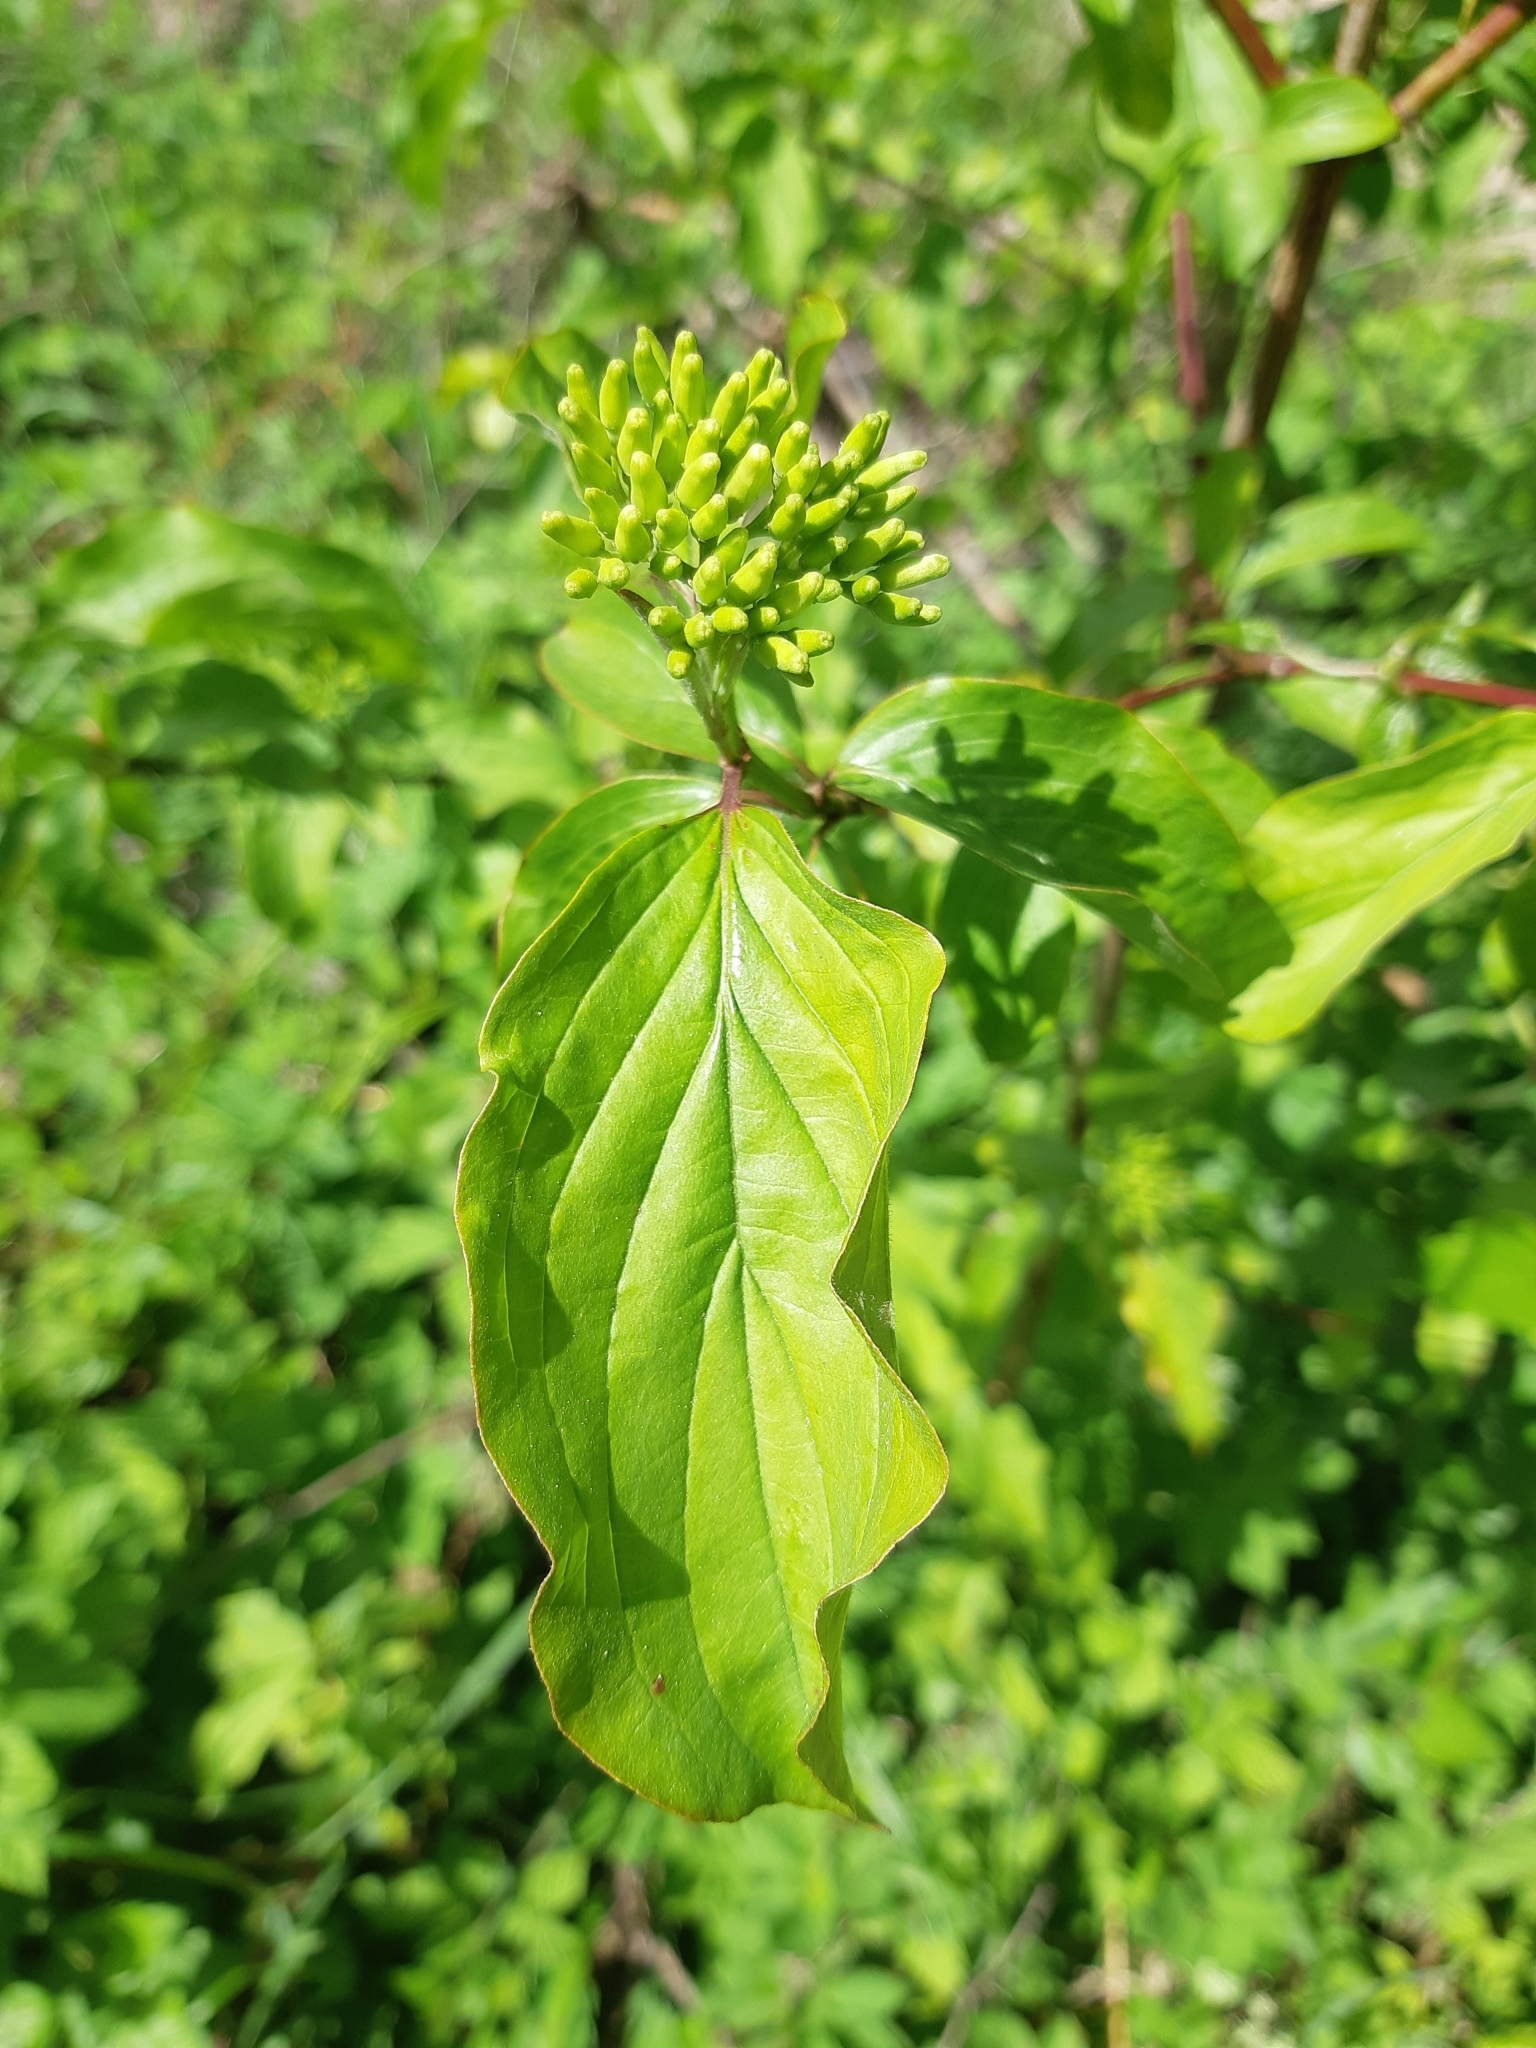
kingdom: Plantae
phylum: Tracheophyta
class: Magnoliopsida
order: Cornales
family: Cornaceae
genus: Cornus
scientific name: Cornus sanguinea
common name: Dogwood
